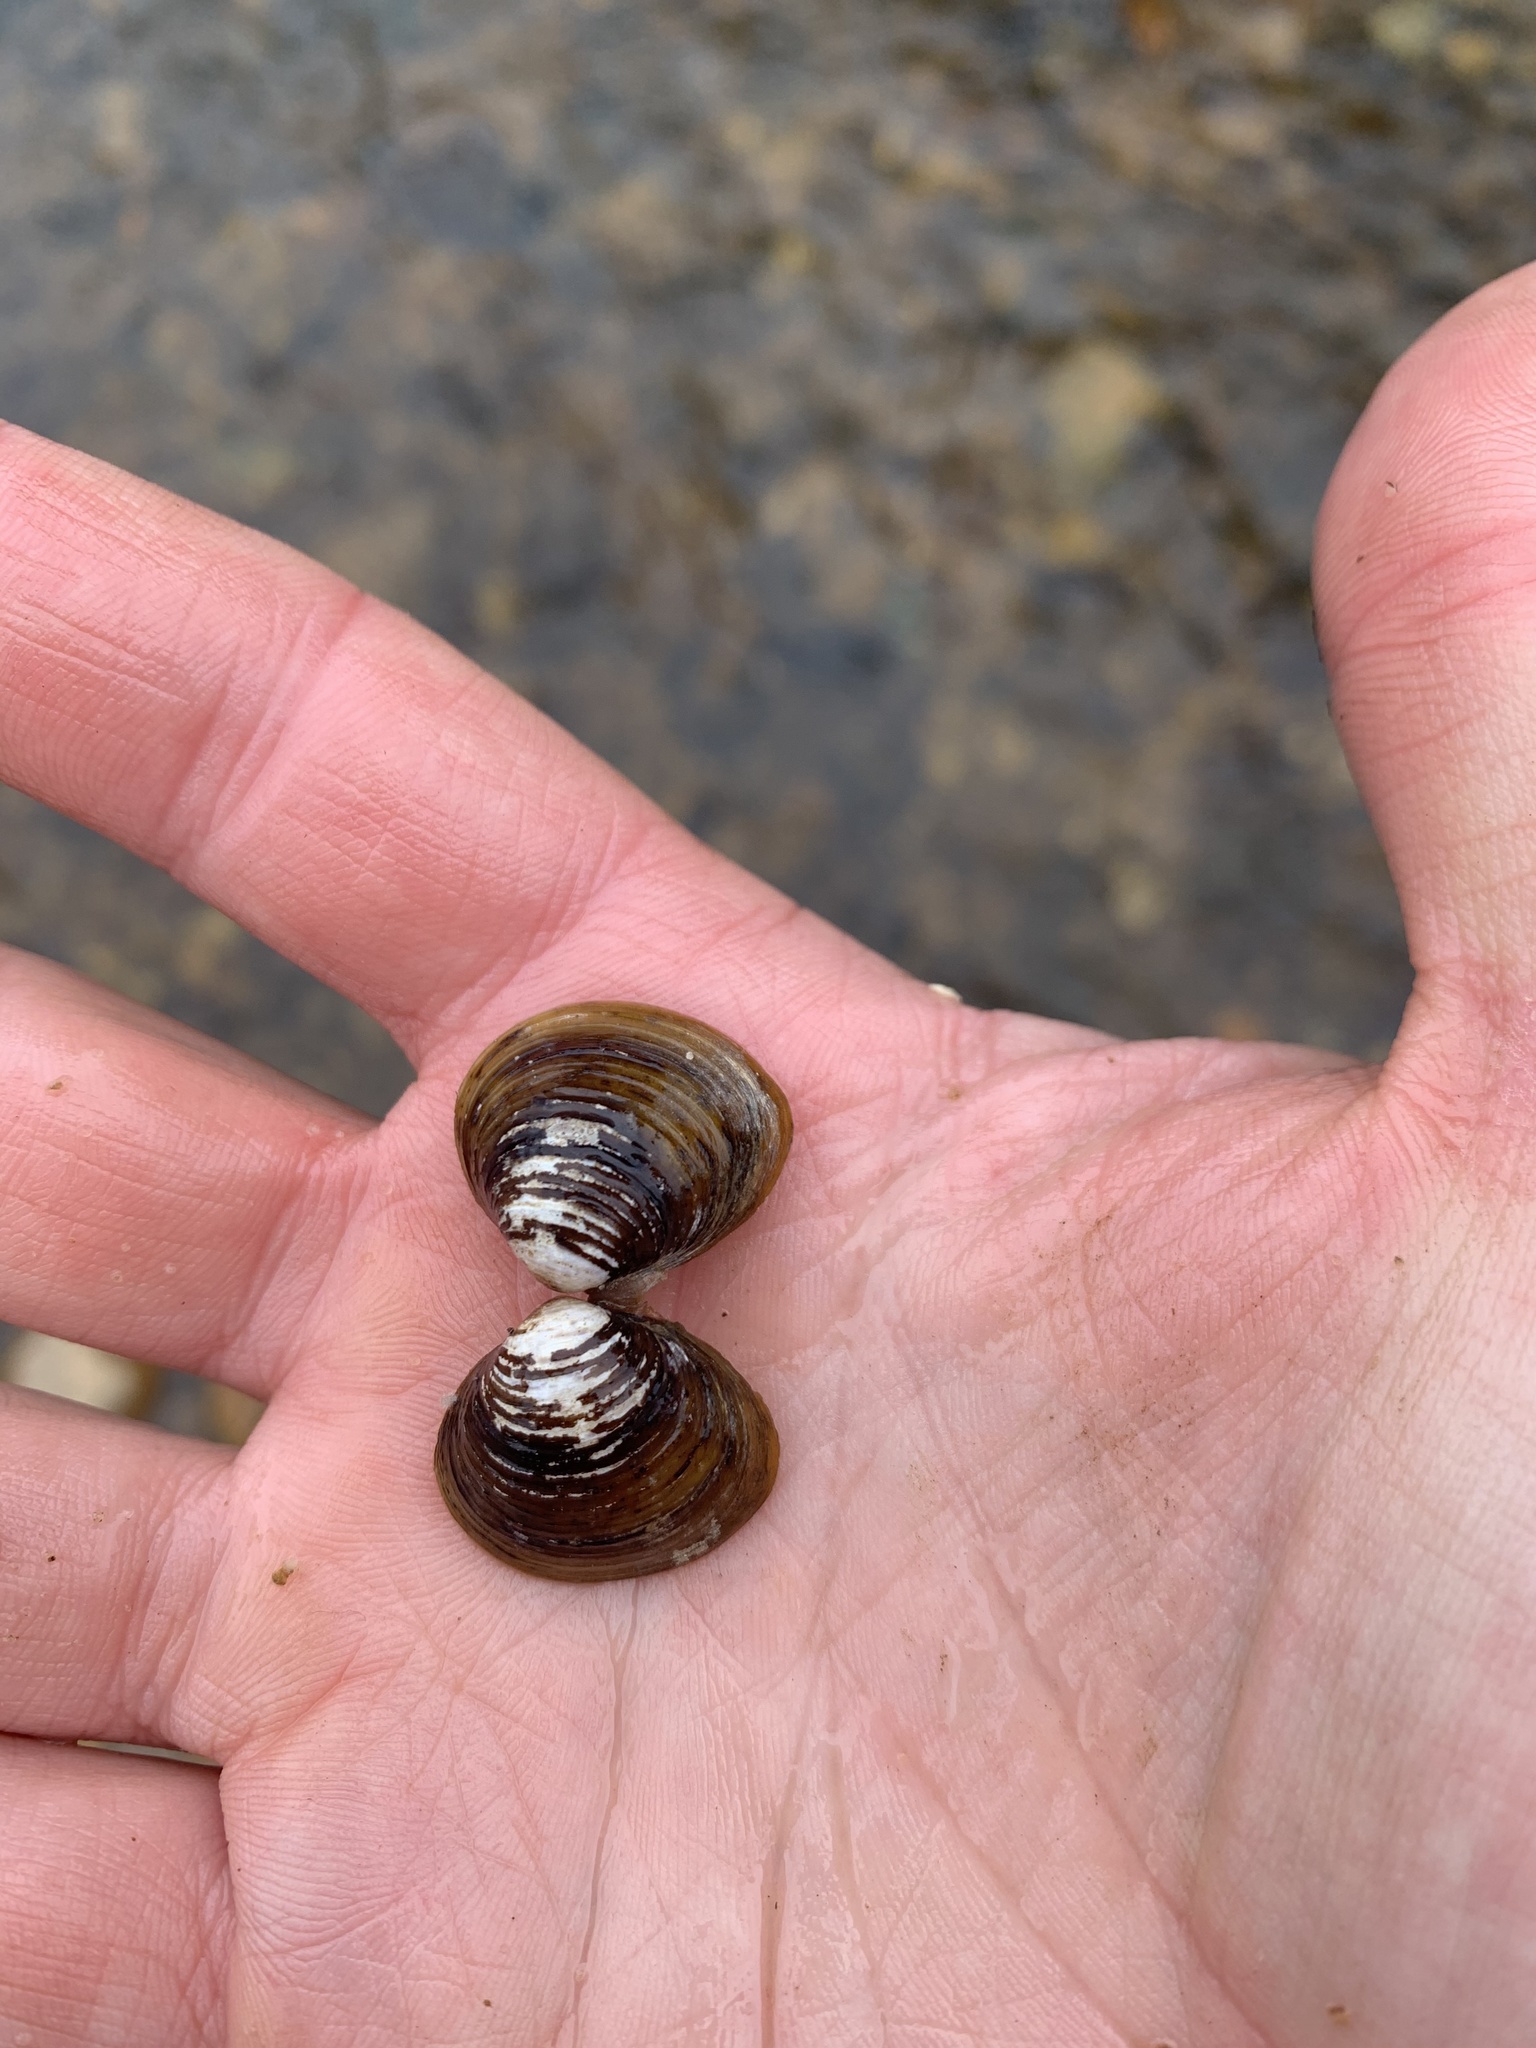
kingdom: Animalia
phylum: Mollusca
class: Bivalvia
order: Venerida
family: Cyrenidae
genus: Corbicula
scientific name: Corbicula fluminea
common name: Asian clam
